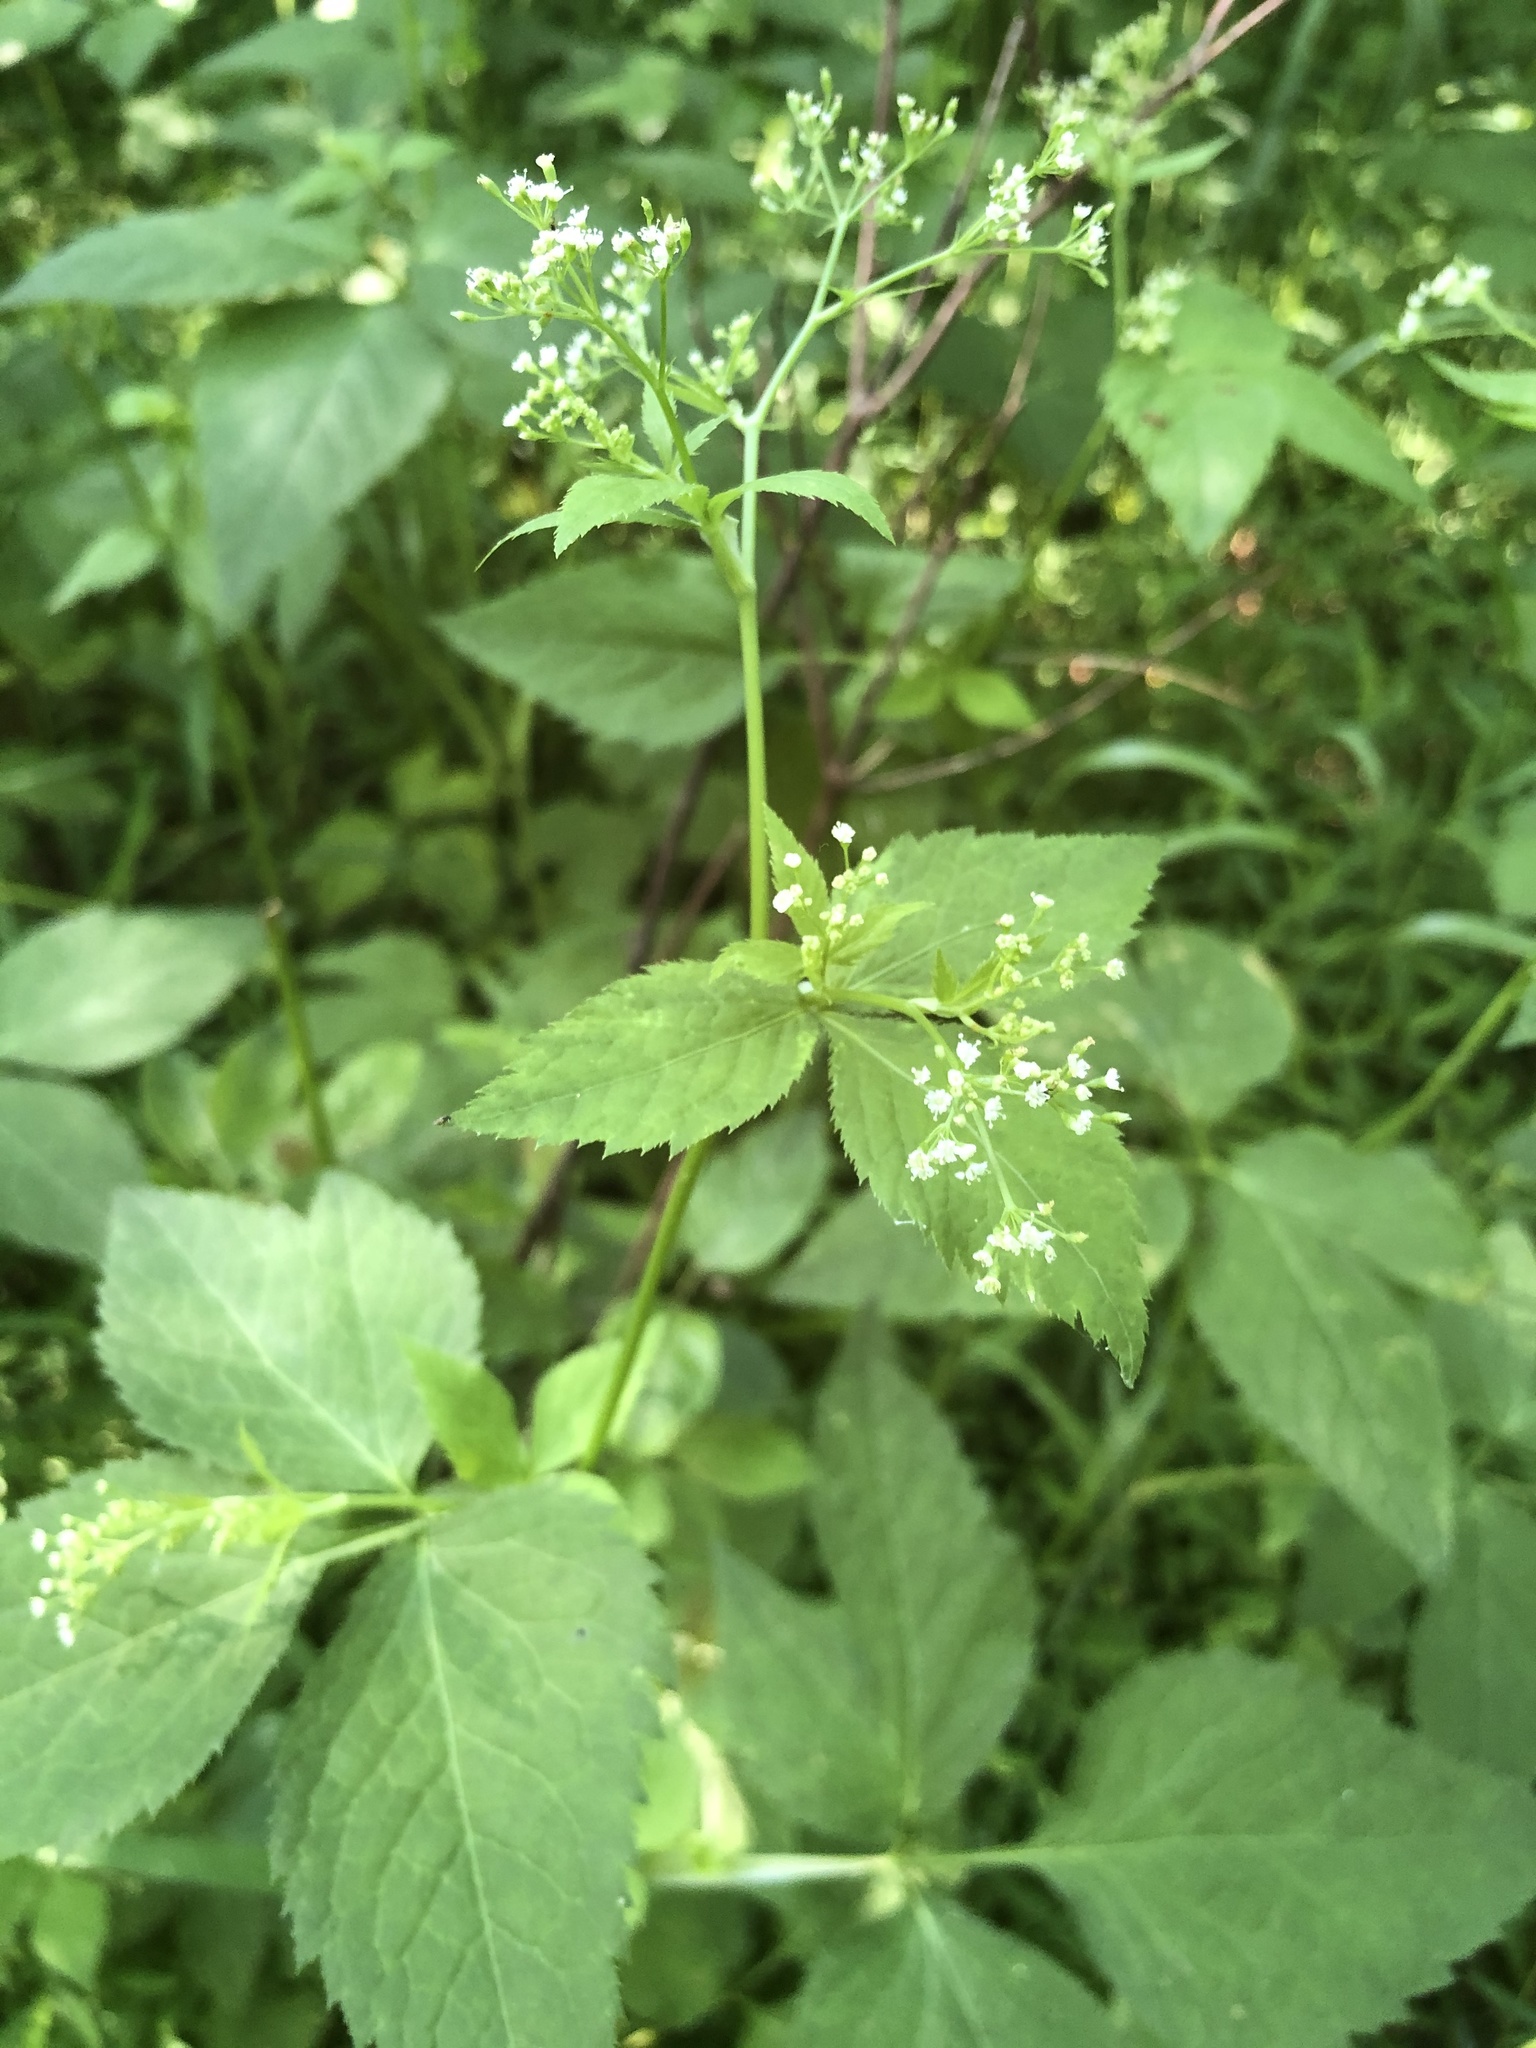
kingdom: Plantae
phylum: Tracheophyta
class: Magnoliopsida
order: Apiales
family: Apiaceae
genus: Cryptotaenia
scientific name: Cryptotaenia canadensis
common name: Honewort
